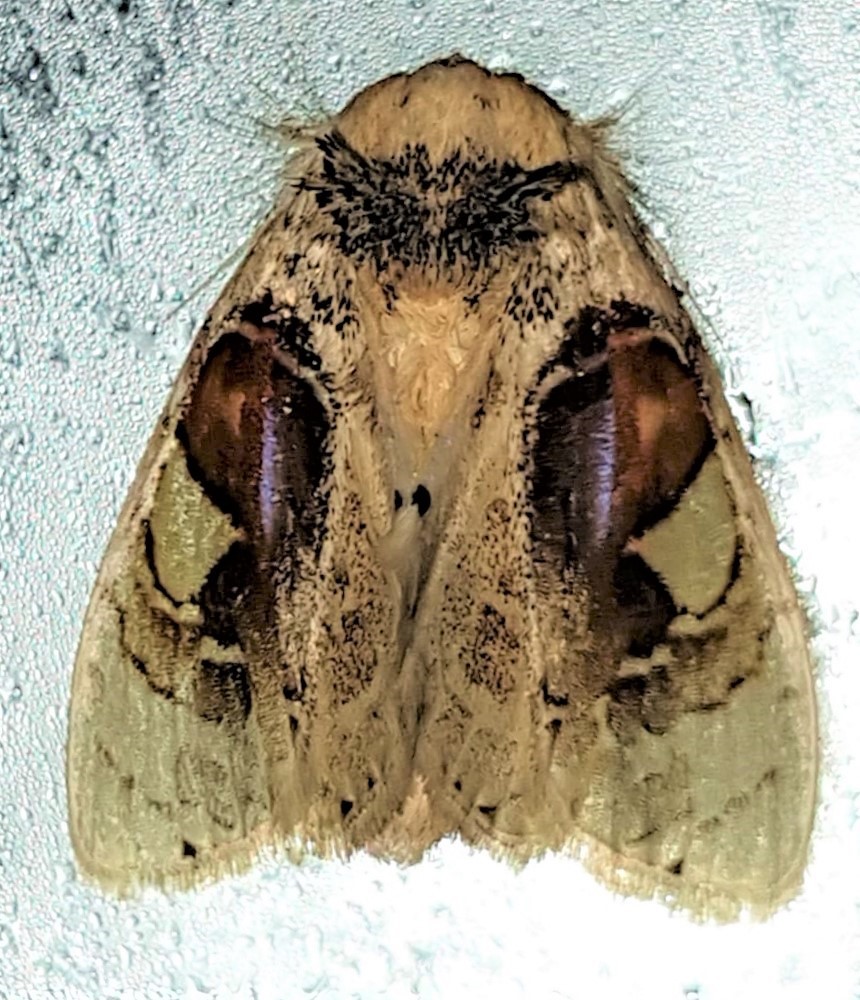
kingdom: Animalia
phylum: Arthropoda
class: Insecta
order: Lepidoptera
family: Psychidae
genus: Arrhenophanes
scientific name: Arrhenophanes perspicilla
